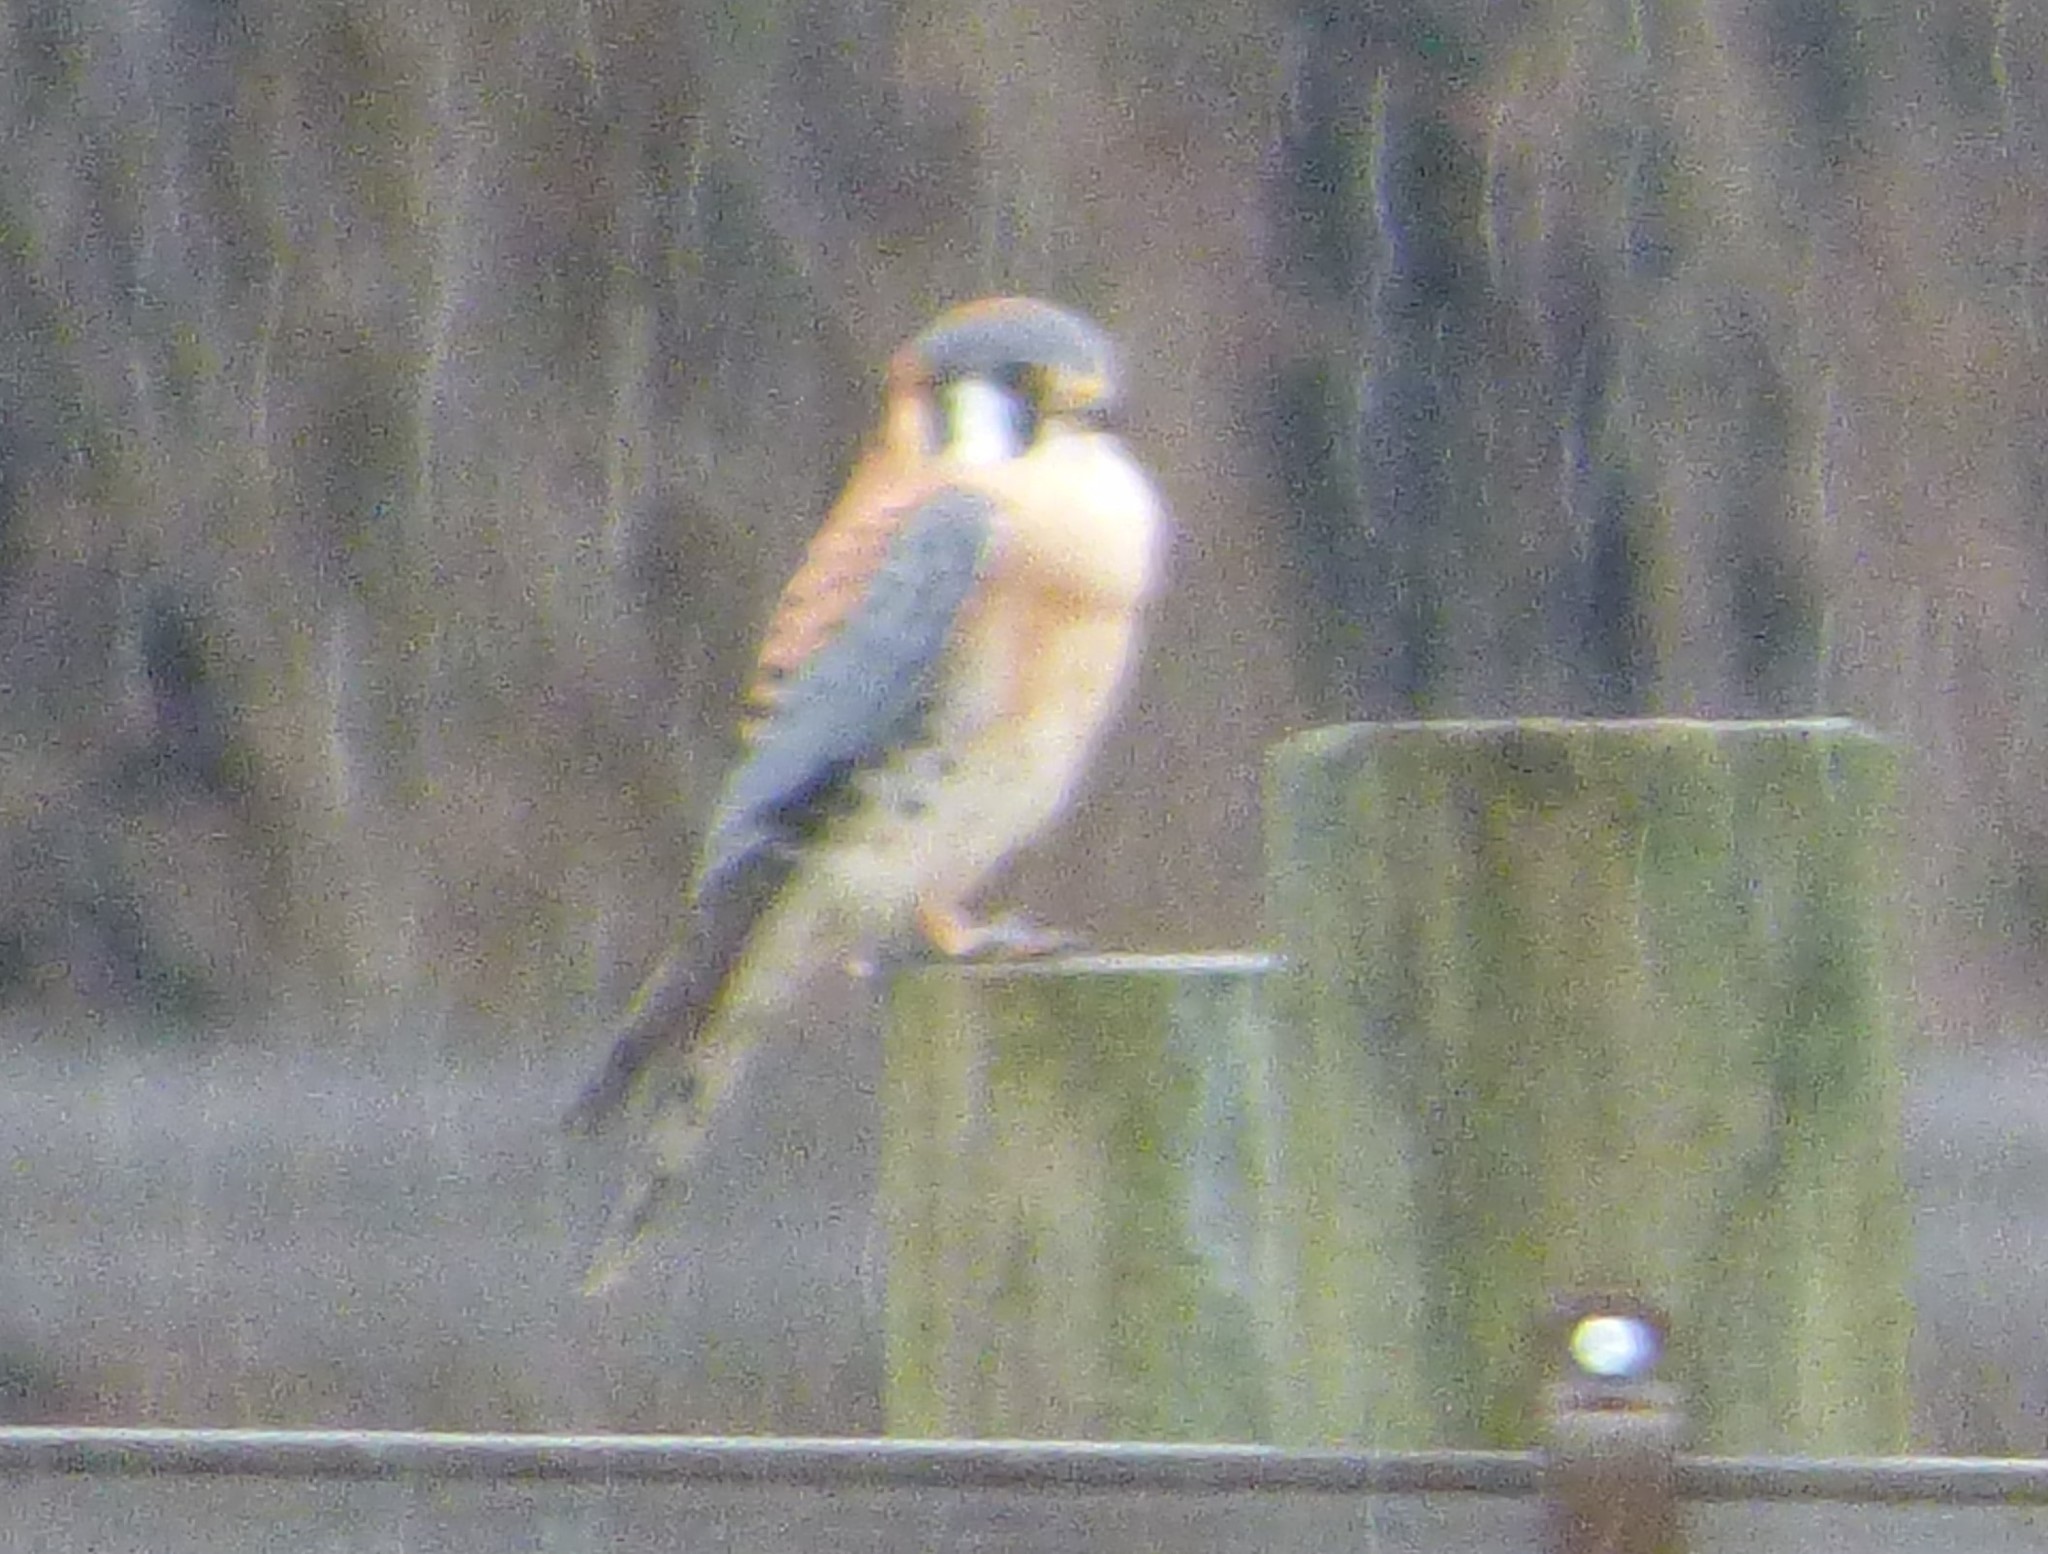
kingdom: Animalia
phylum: Chordata
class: Aves
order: Falconiformes
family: Falconidae
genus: Falco
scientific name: Falco sparverius
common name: American kestrel
